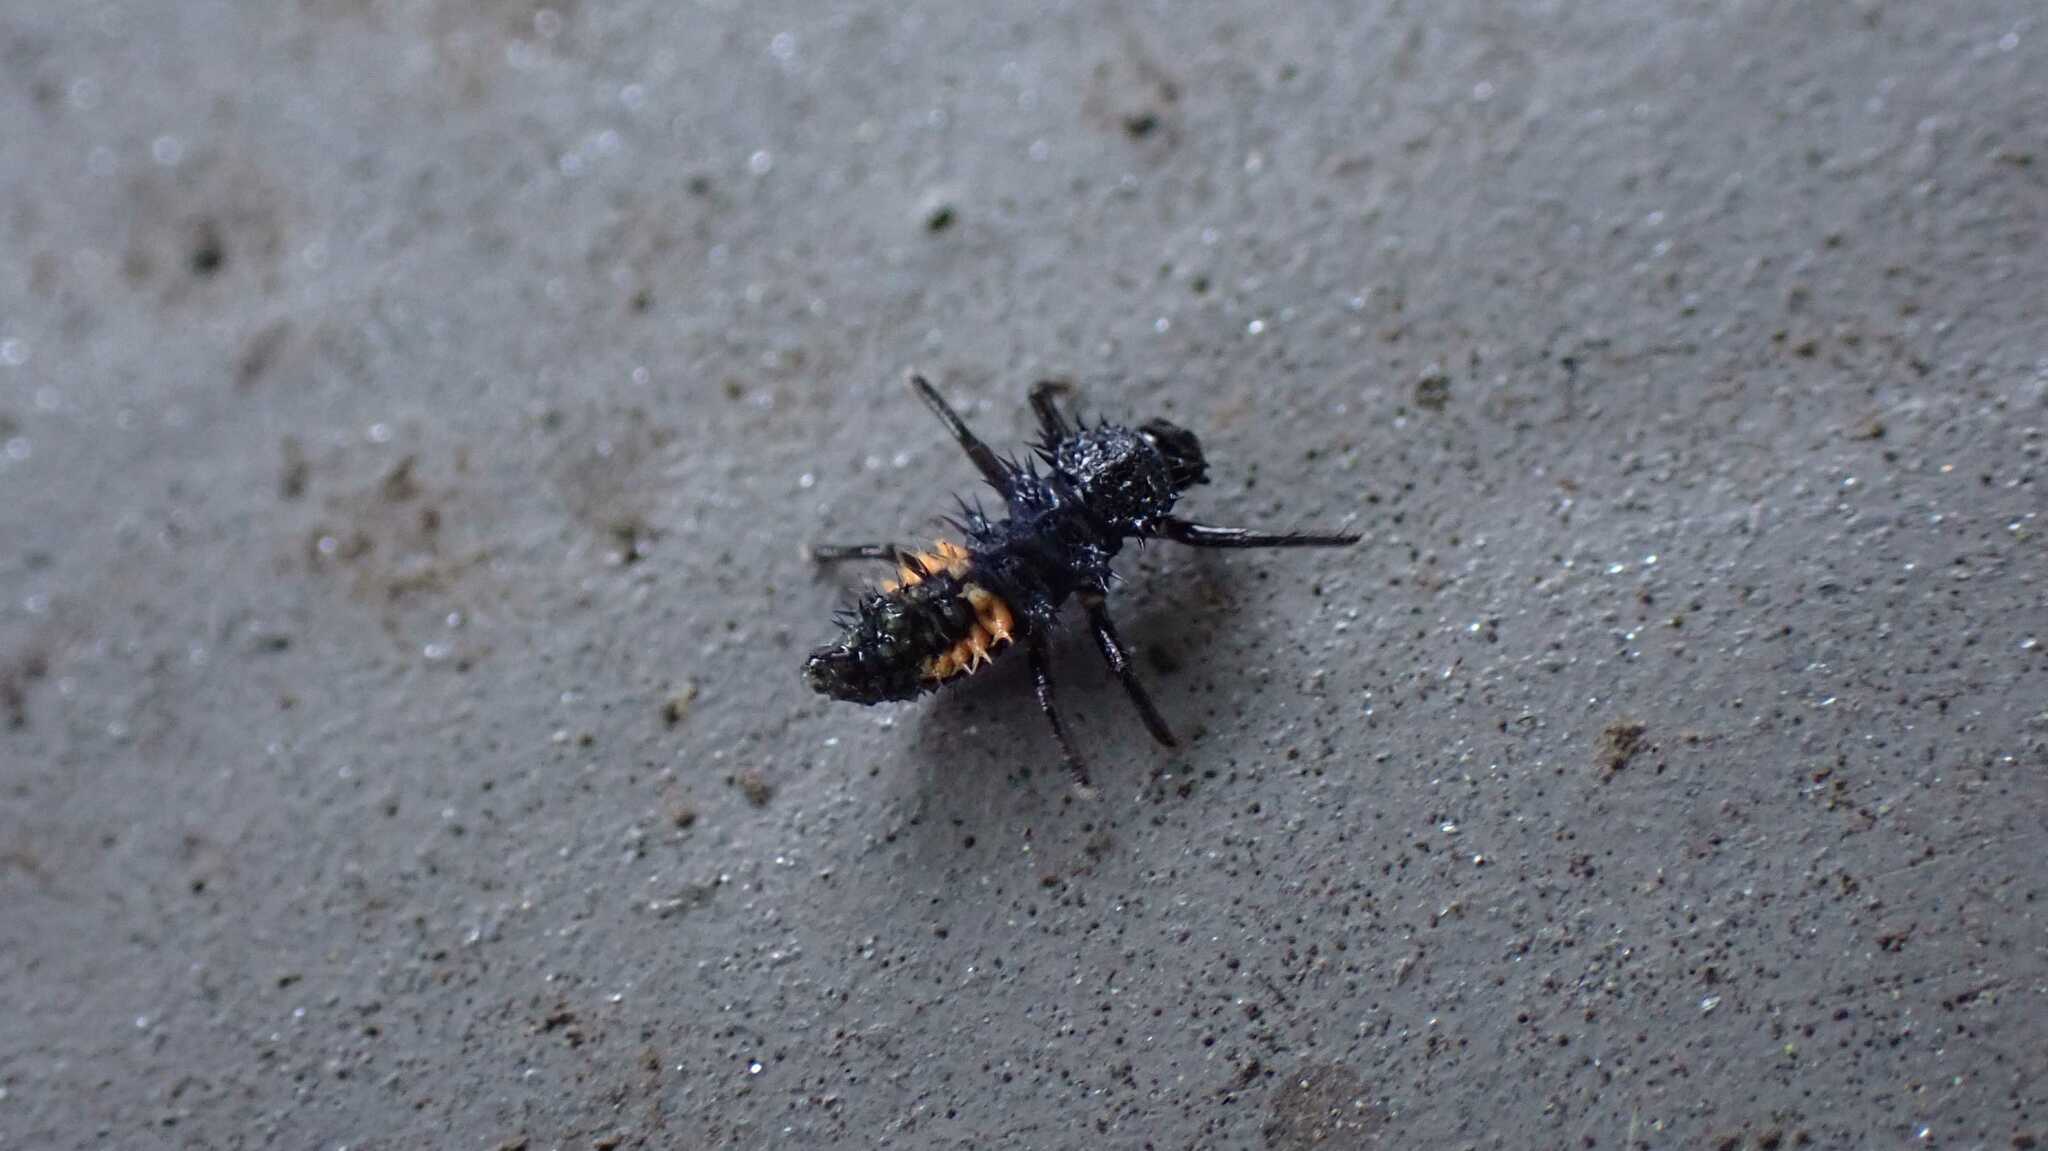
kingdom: Animalia
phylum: Arthropoda
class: Insecta
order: Coleoptera
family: Coccinellidae
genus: Harmonia
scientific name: Harmonia axyridis
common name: Harlequin ladybird
